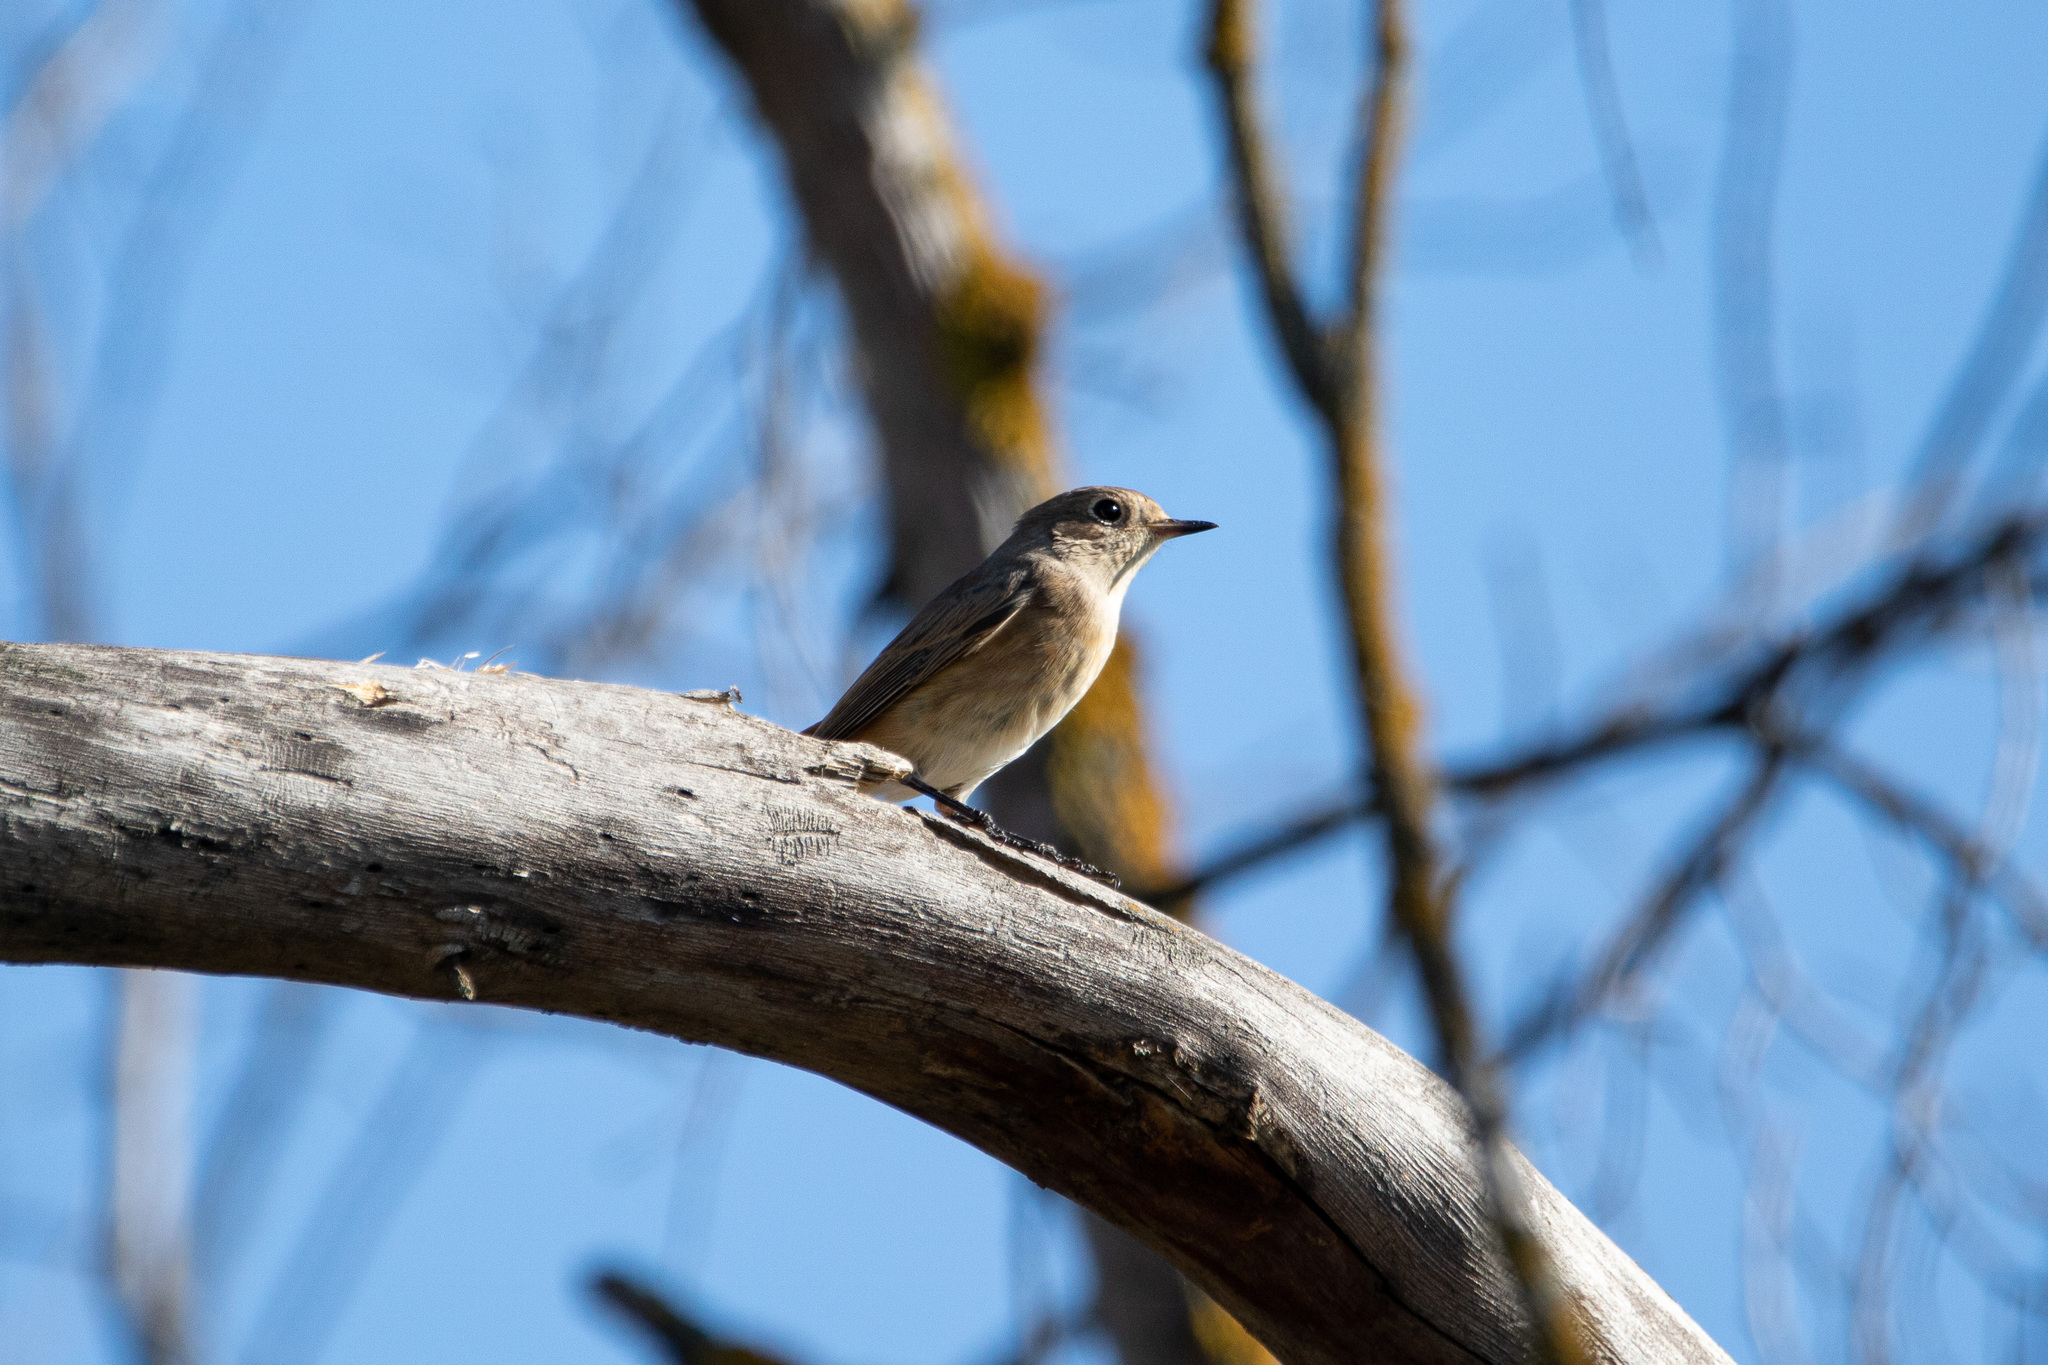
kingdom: Animalia
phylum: Chordata
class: Aves
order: Passeriformes
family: Muscicapidae
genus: Phoenicurus
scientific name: Phoenicurus ochruros
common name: Black redstart
